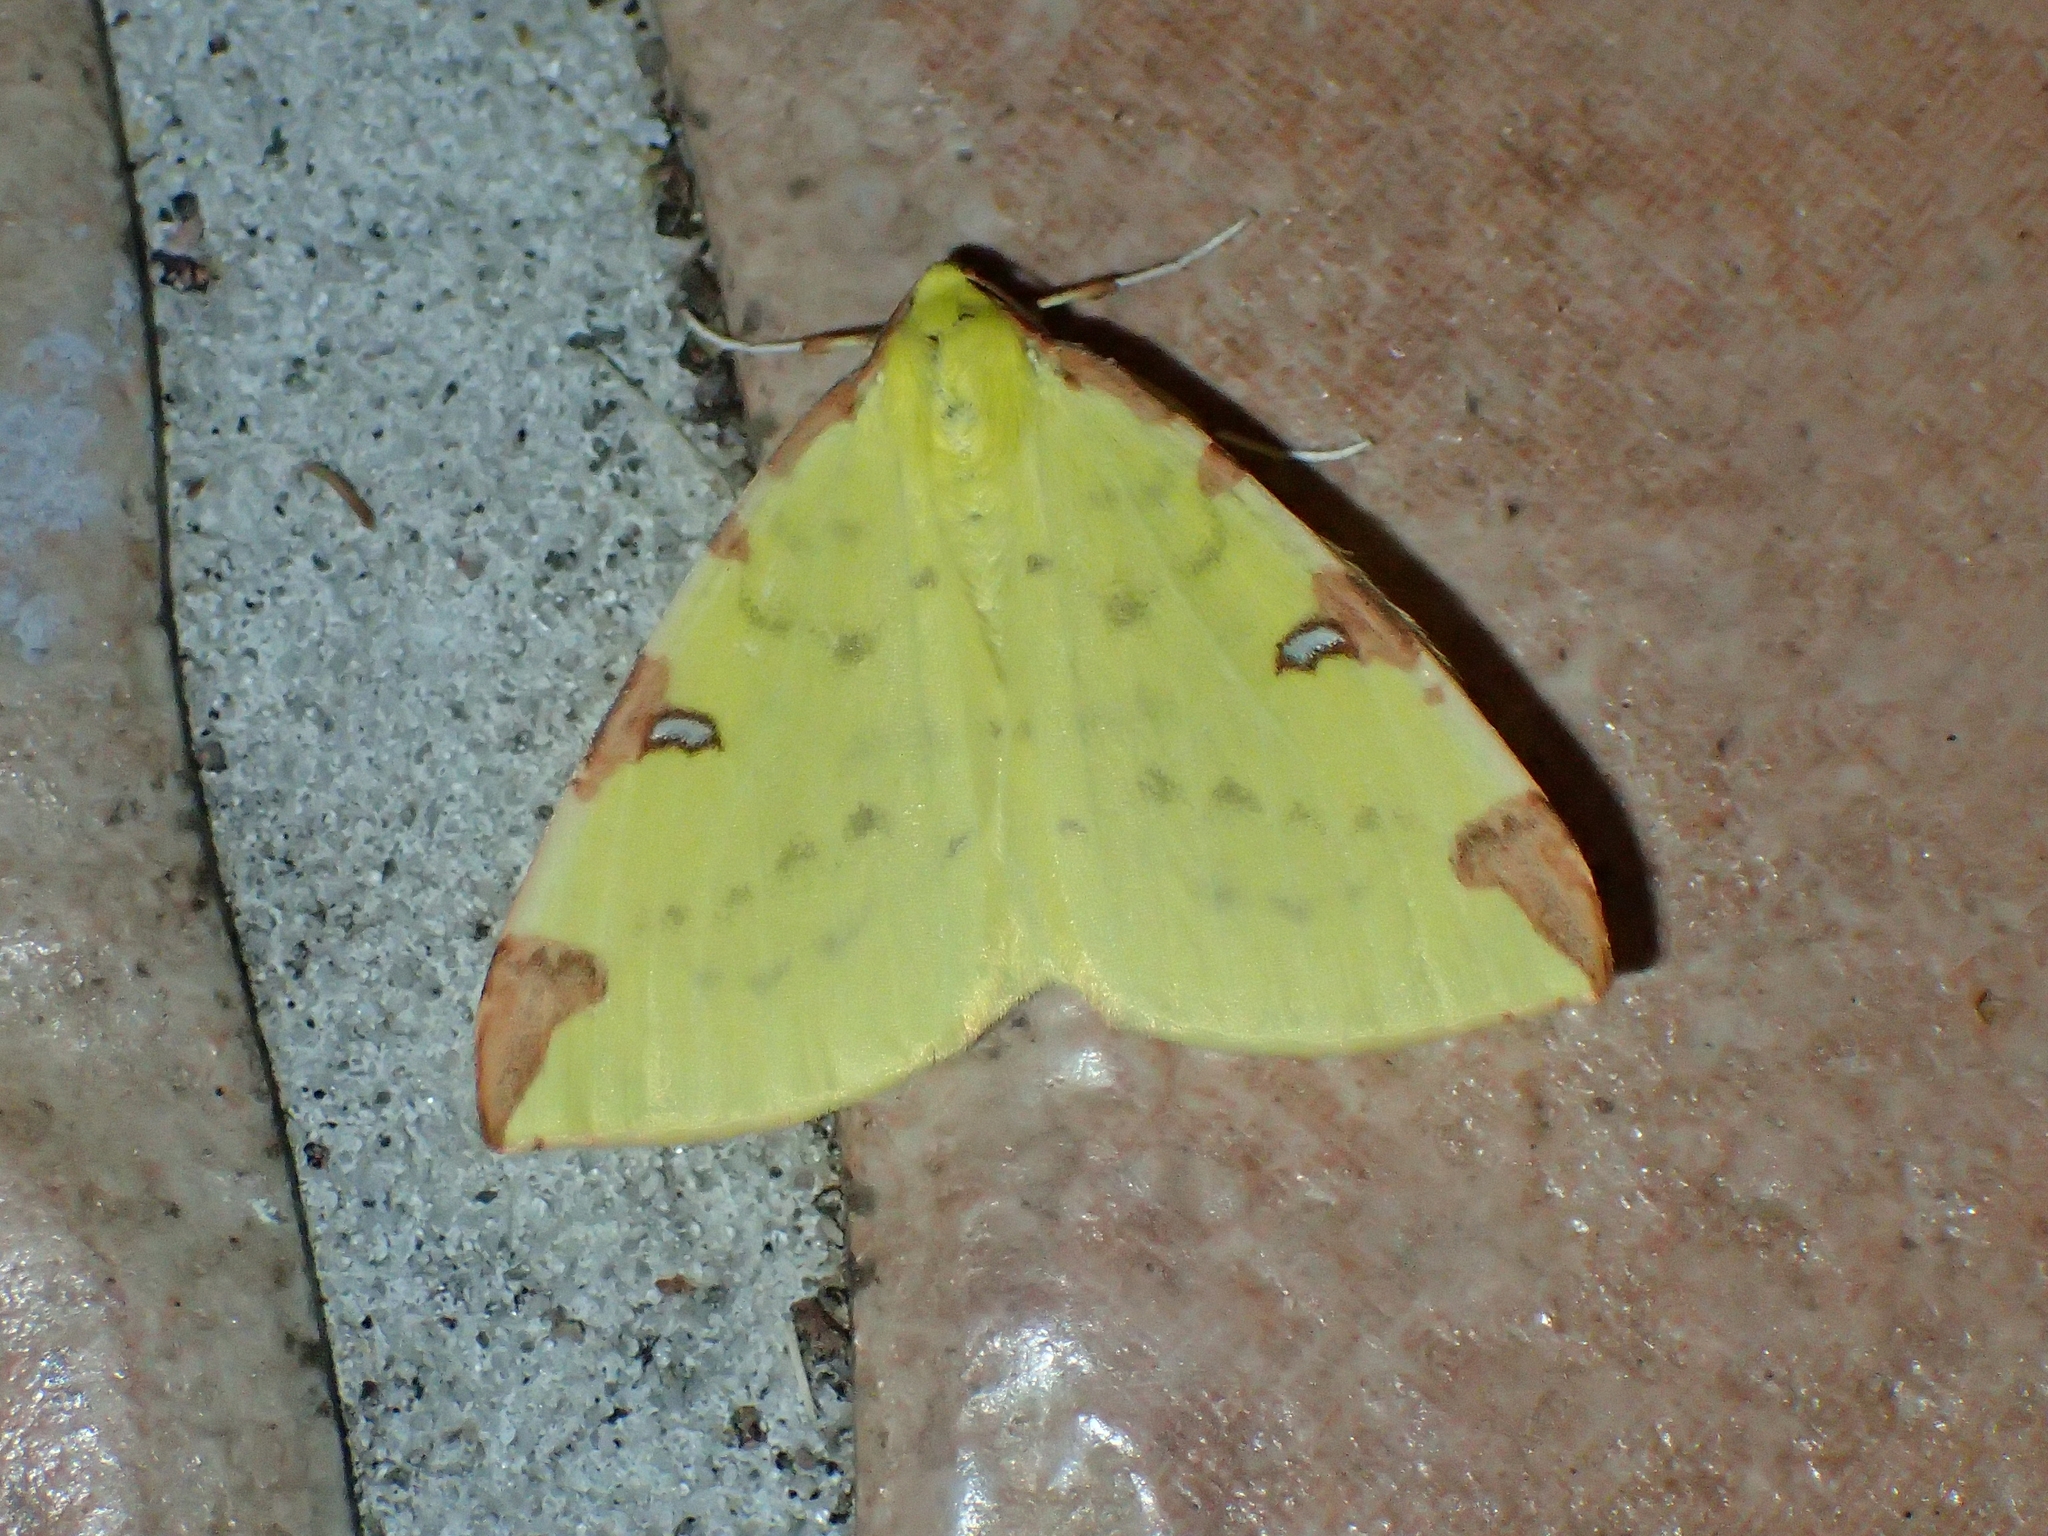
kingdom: Animalia
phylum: Arthropoda
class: Insecta
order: Lepidoptera
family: Geometridae
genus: Opisthograptis
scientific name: Opisthograptis luteolata
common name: Brimstone moth
